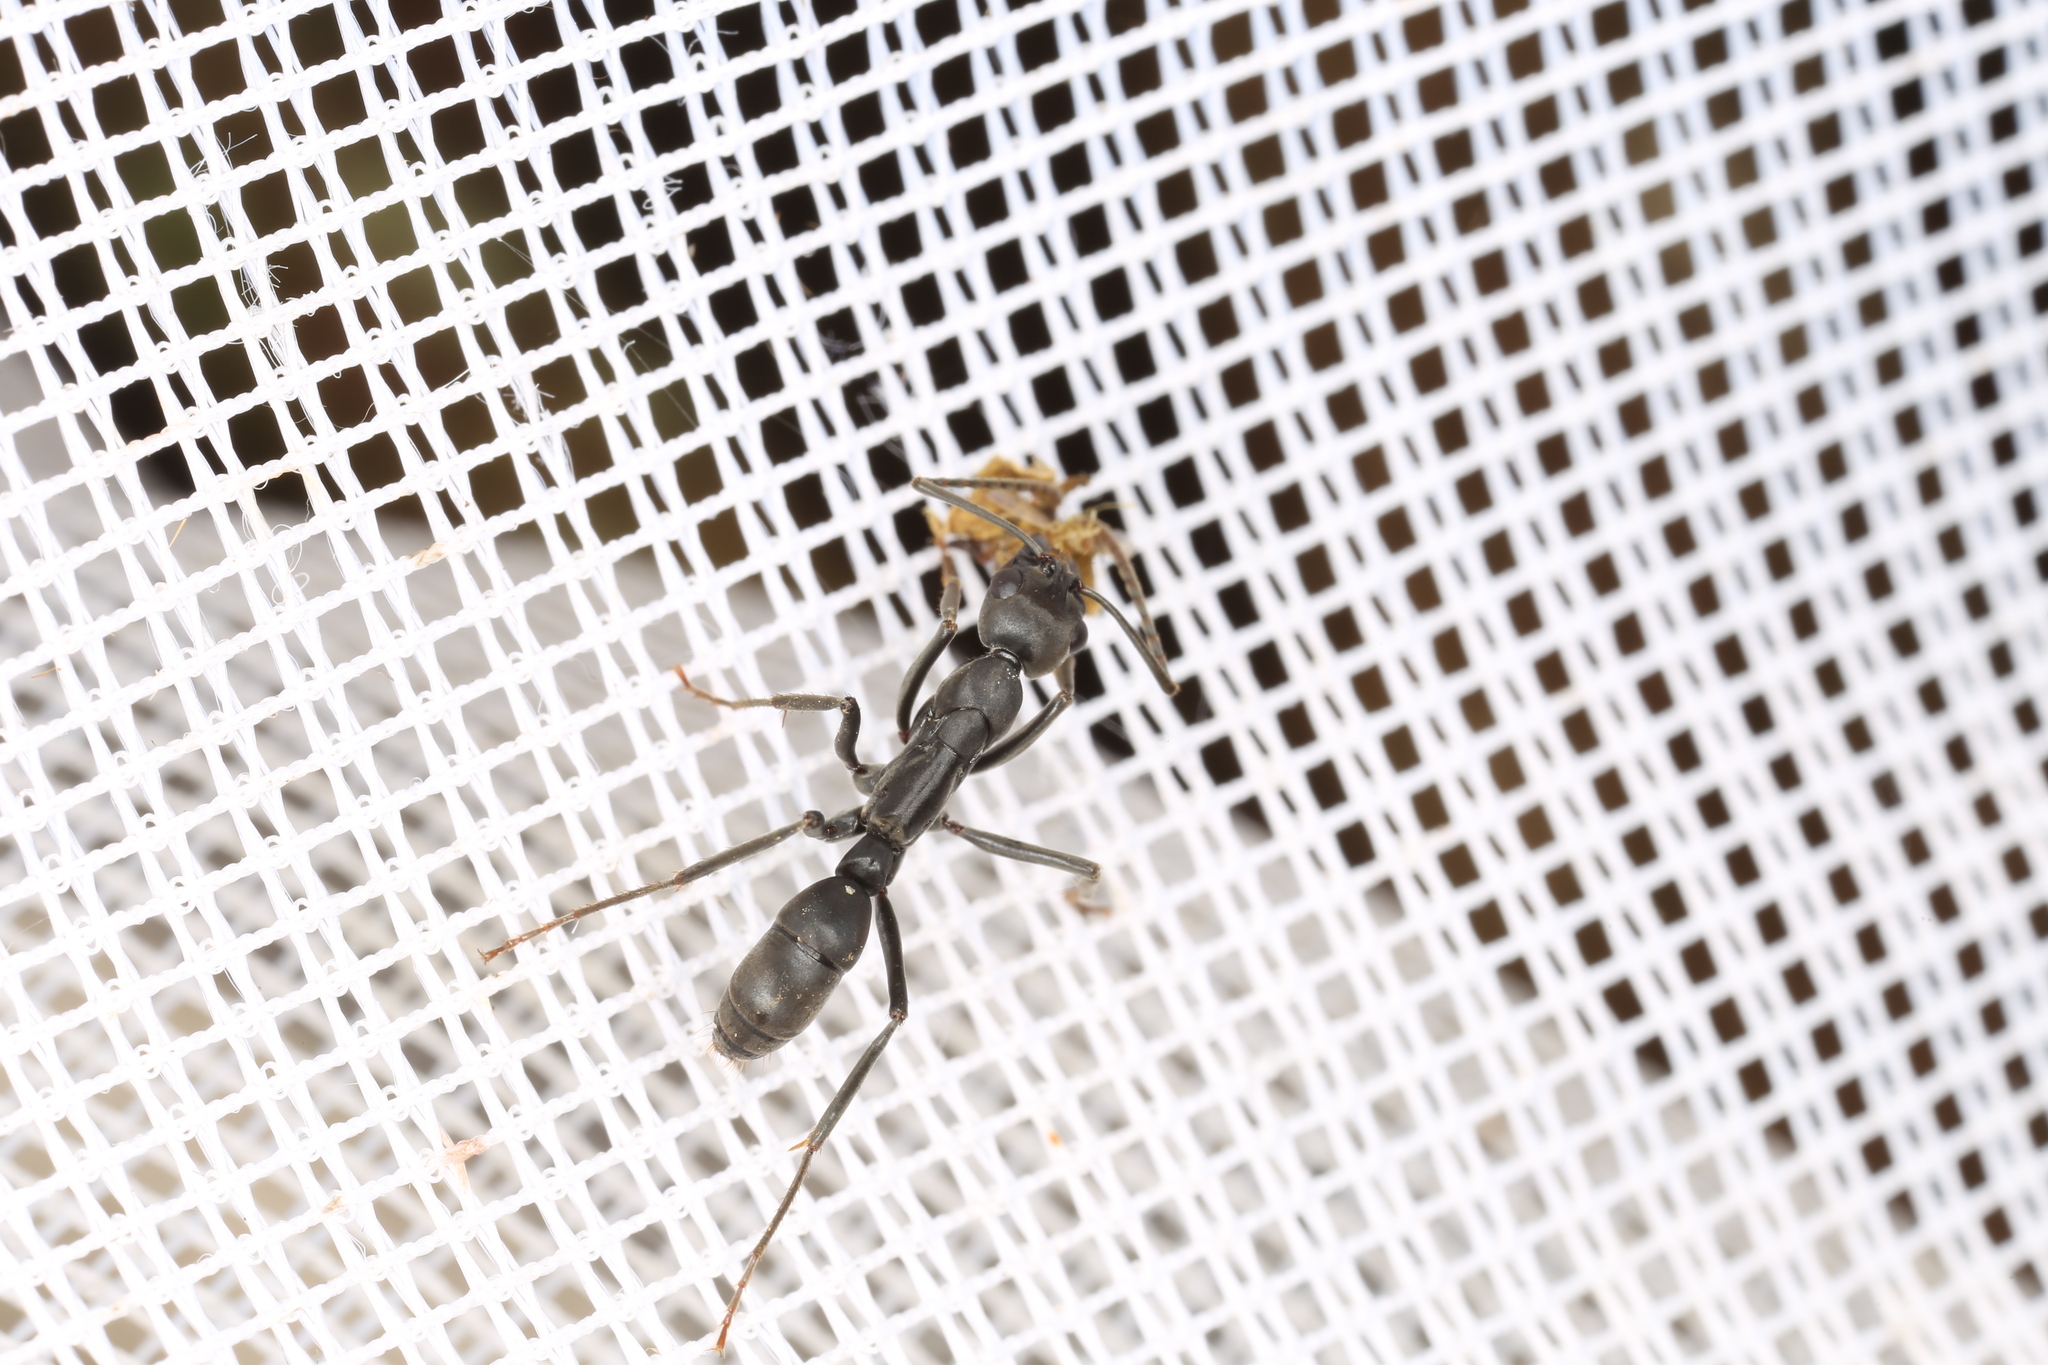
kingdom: Animalia
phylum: Arthropoda
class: Insecta
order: Hymenoptera
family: Formicidae
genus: Neoponera
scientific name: Neoponera verenae
